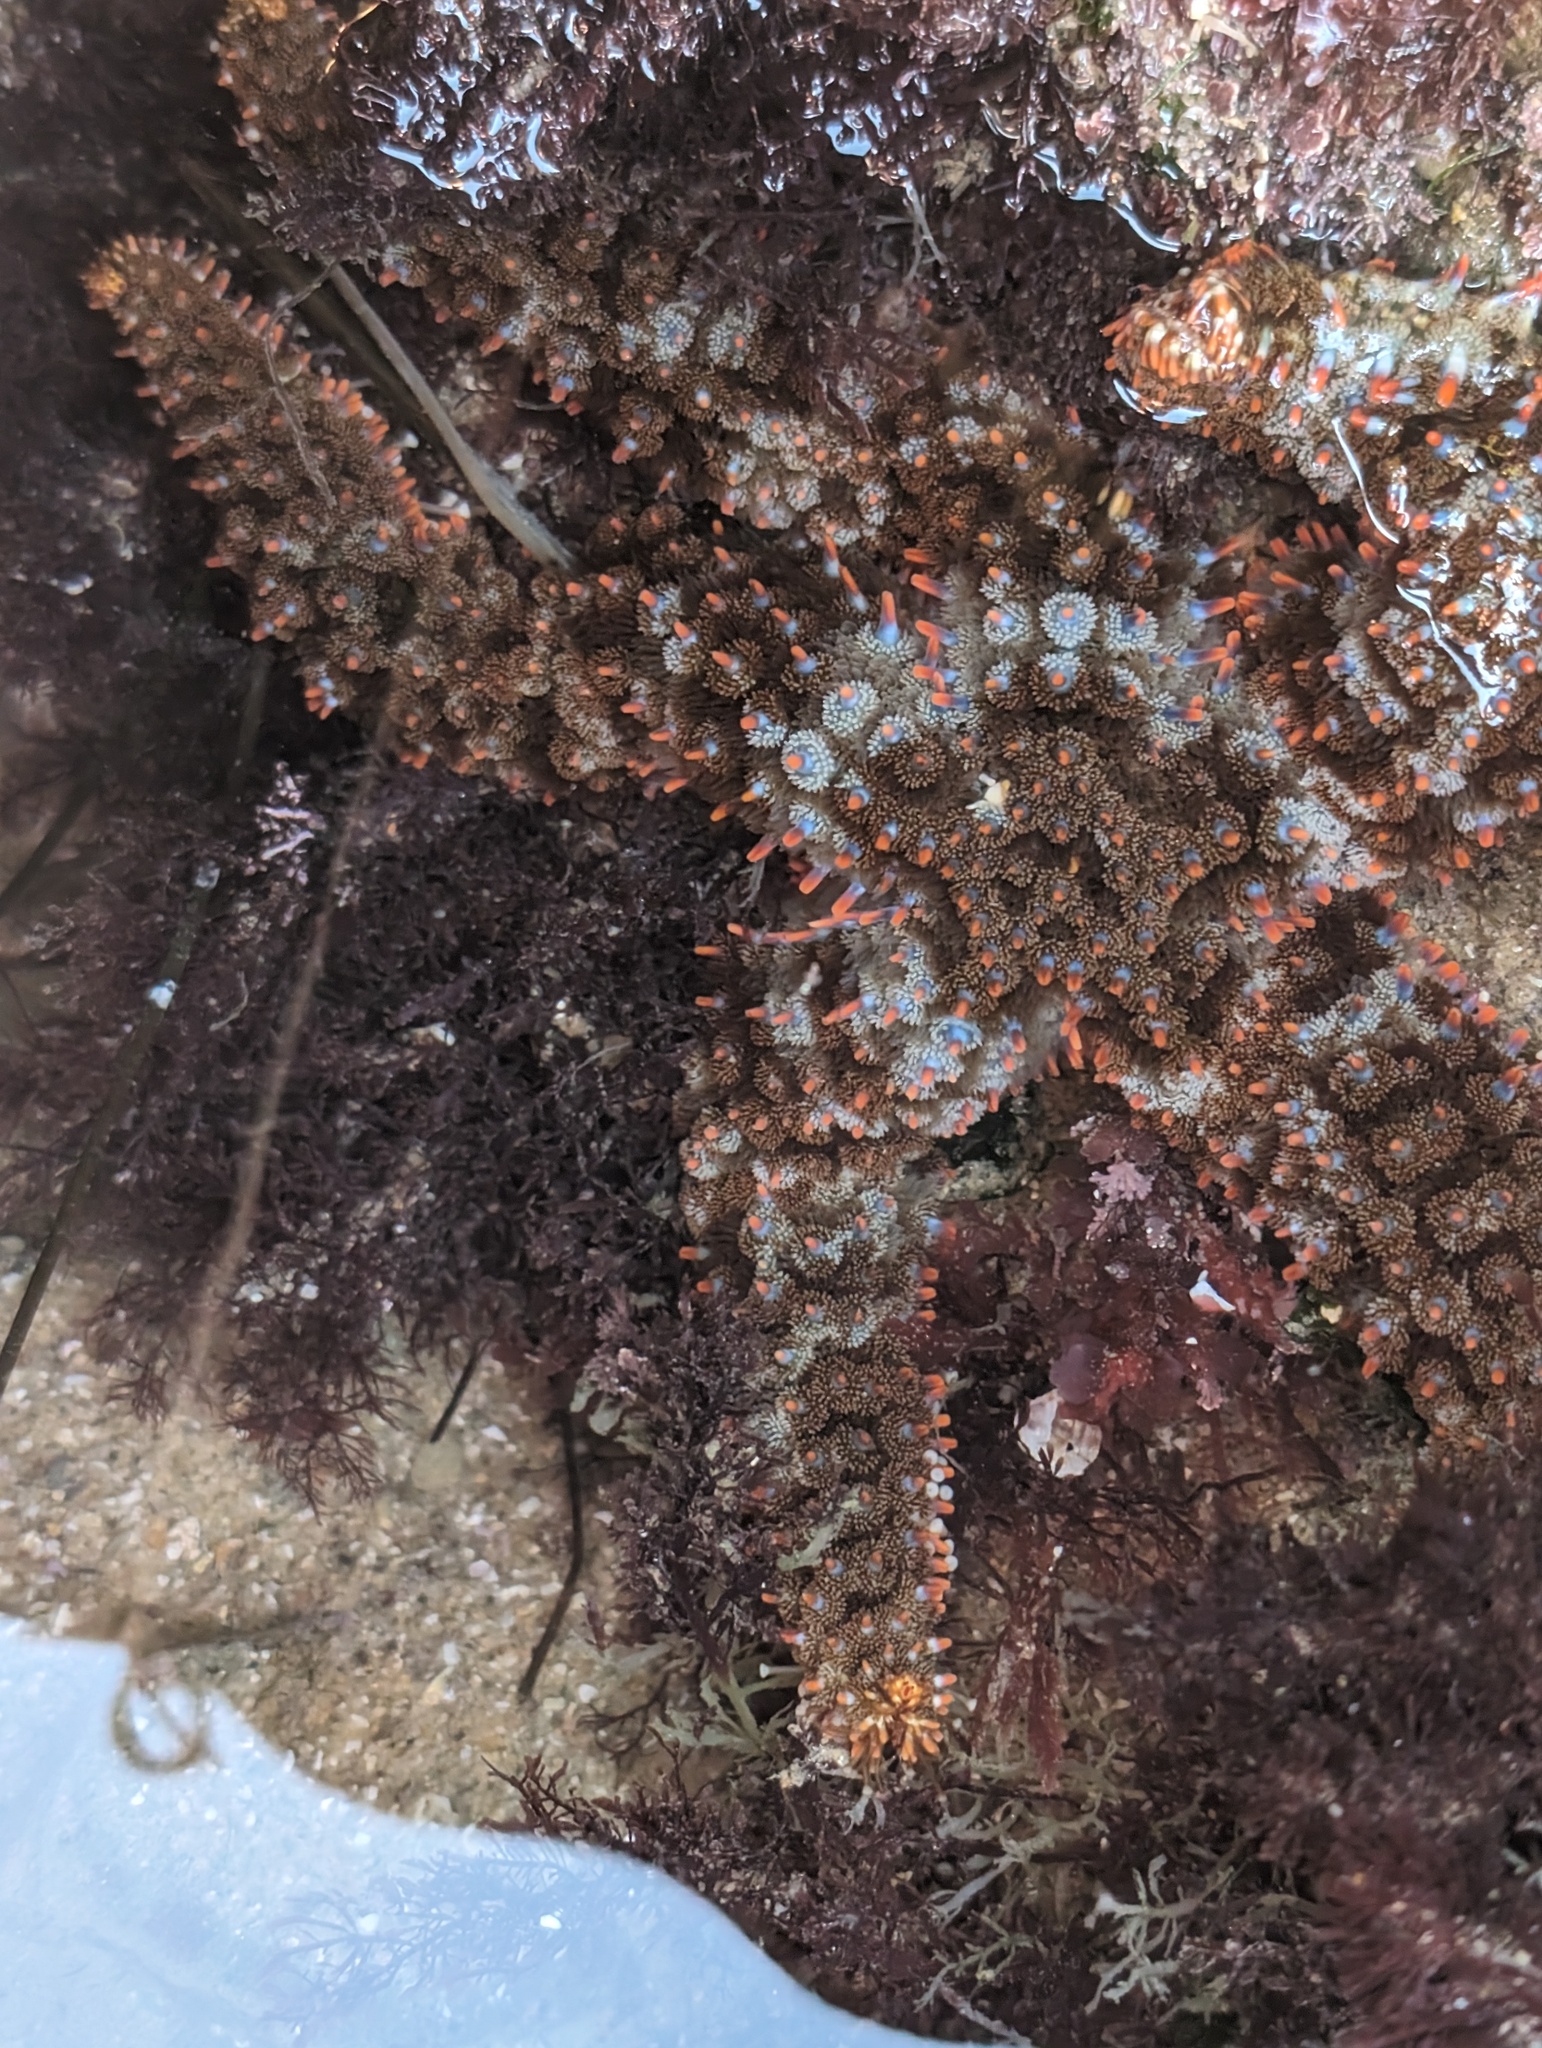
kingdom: Animalia
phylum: Echinodermata
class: Asteroidea
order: Forcipulatida
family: Asteriidae
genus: Astrometis
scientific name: Astrometis sertulifera
